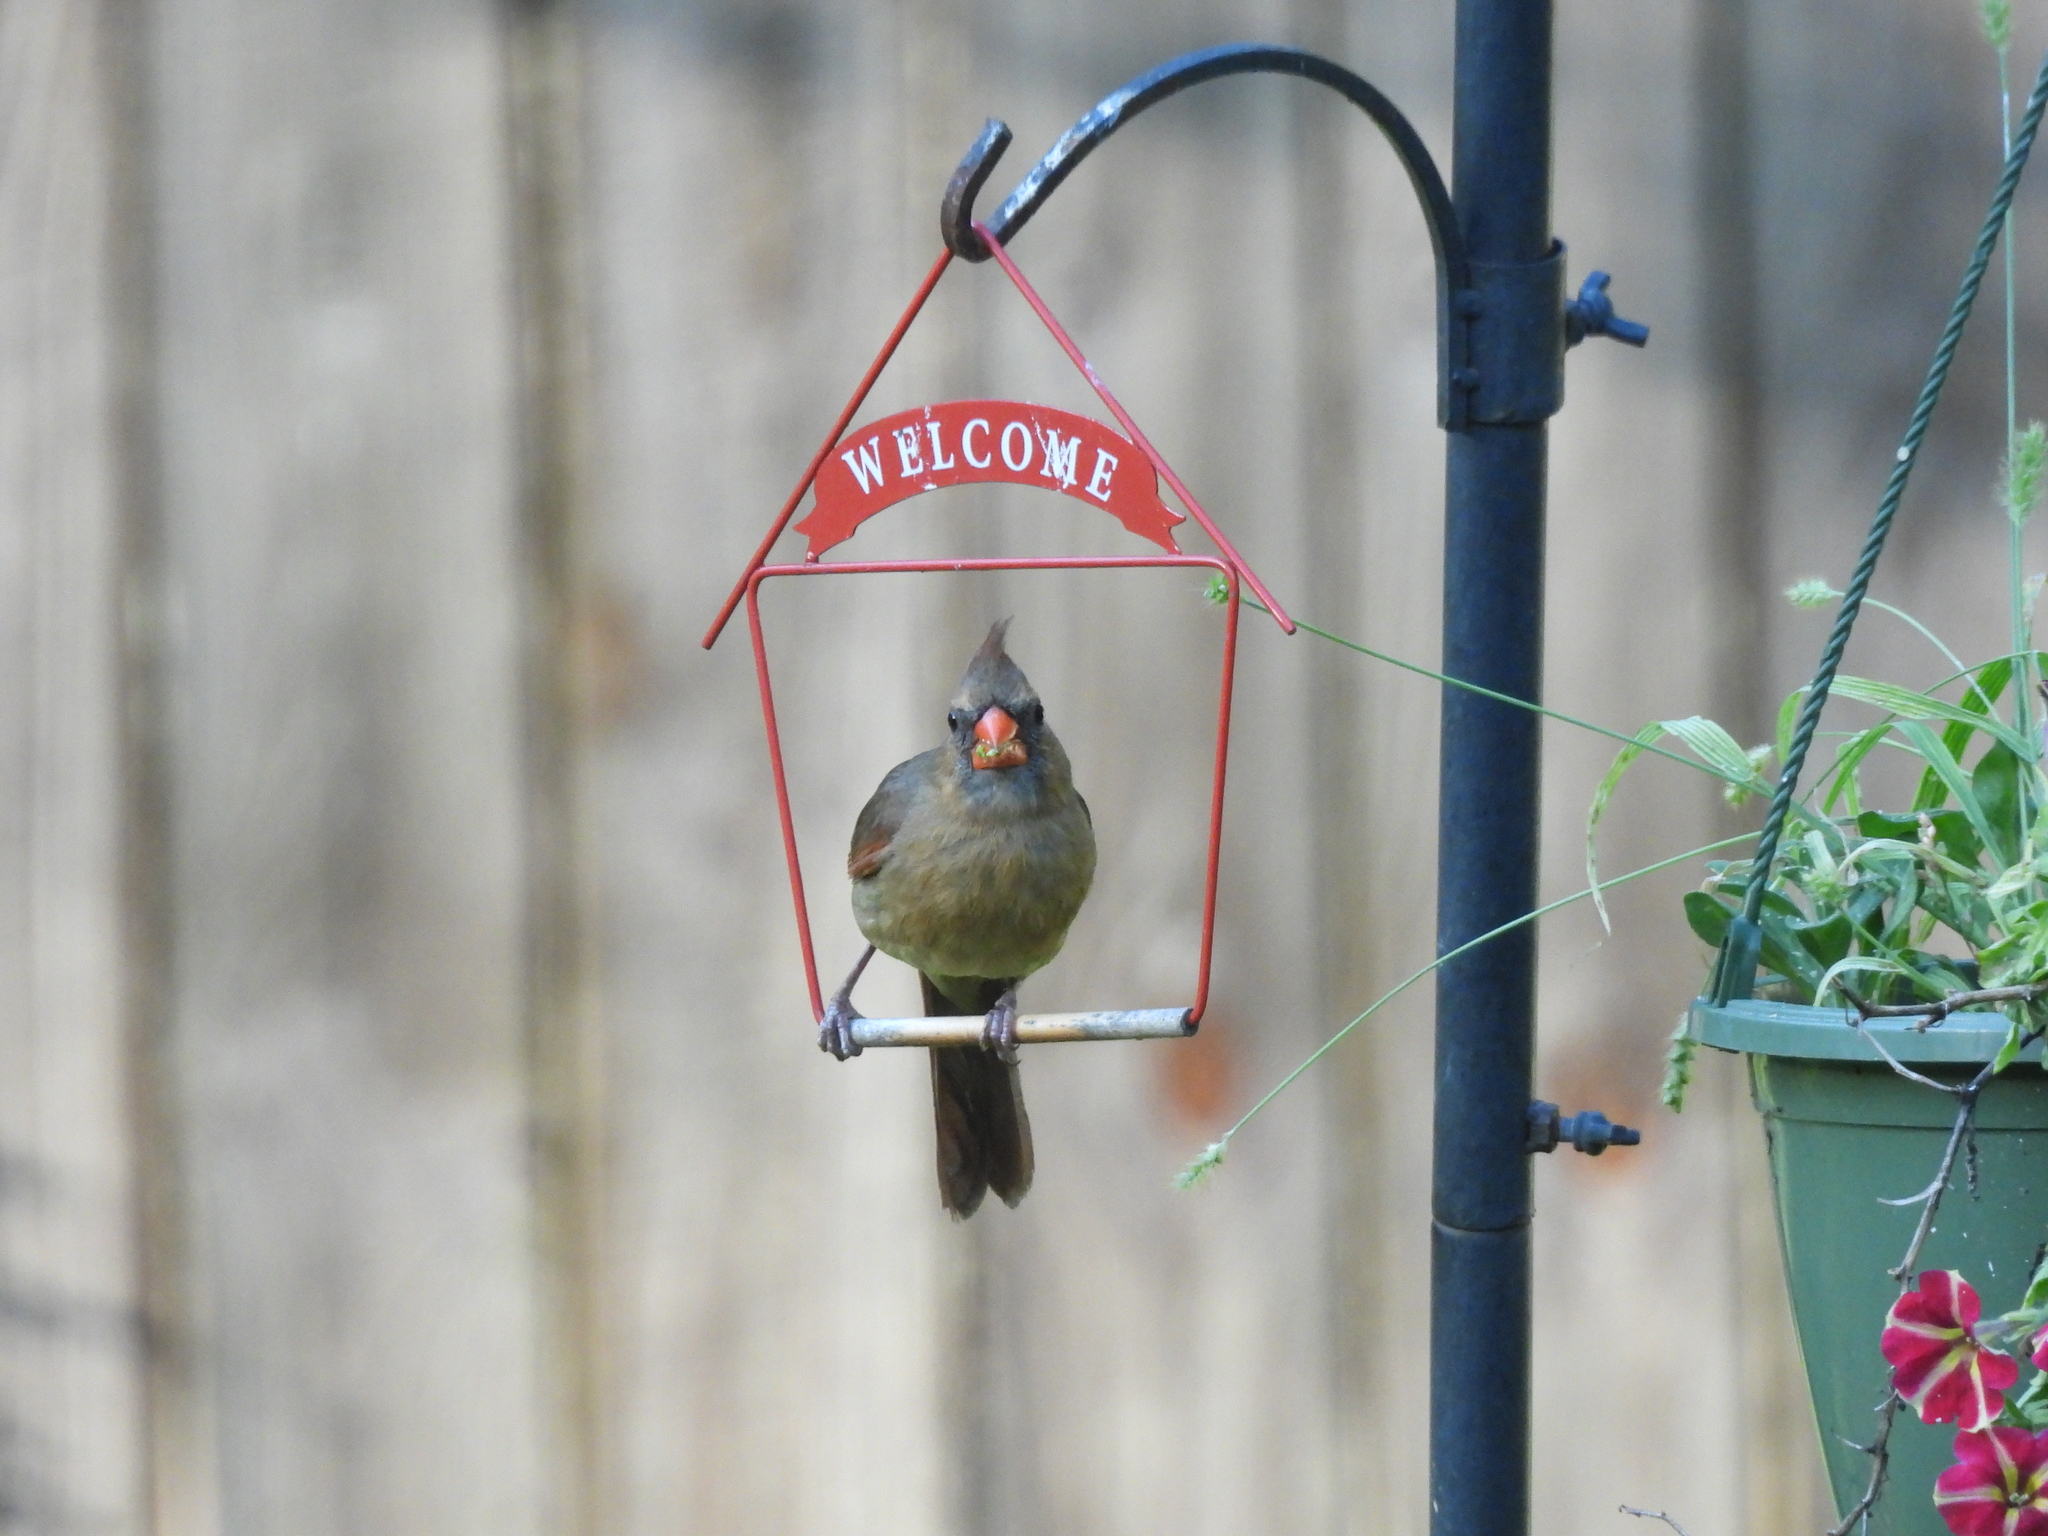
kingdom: Animalia
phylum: Chordata
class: Aves
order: Passeriformes
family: Cardinalidae
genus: Cardinalis
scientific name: Cardinalis cardinalis
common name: Northern cardinal
